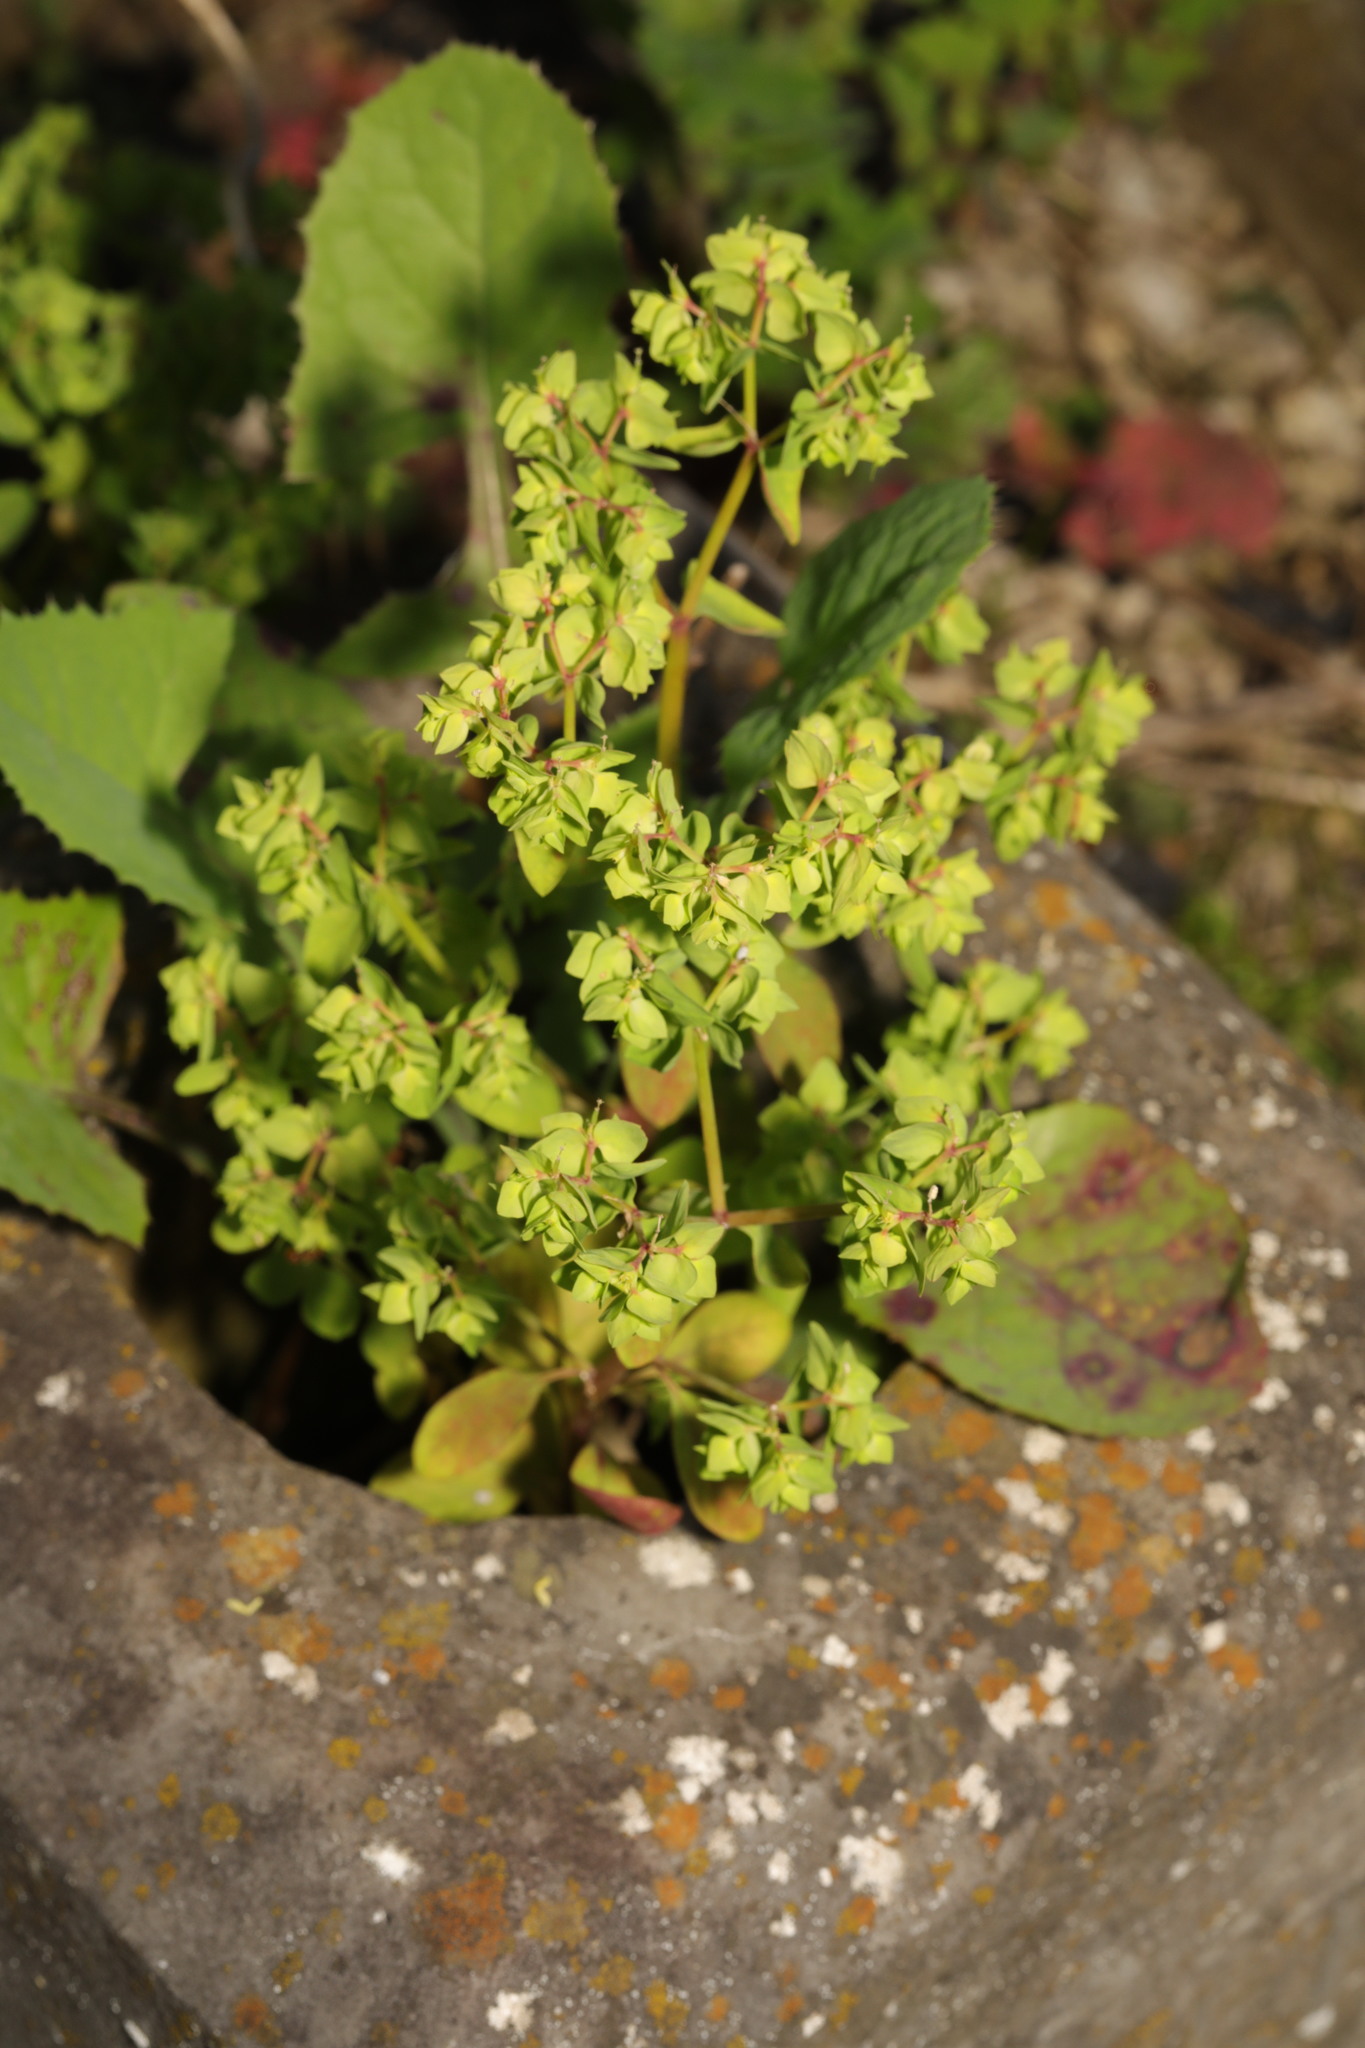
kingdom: Plantae
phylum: Tracheophyta
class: Magnoliopsida
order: Malpighiales
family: Euphorbiaceae
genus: Euphorbia
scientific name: Euphorbia peplus
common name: Petty spurge
